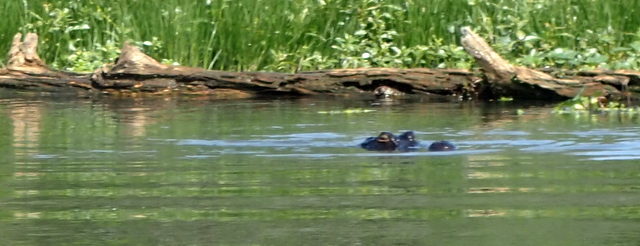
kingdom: Animalia
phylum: Chordata
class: Crocodylia
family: Alligatoridae
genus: Alligator
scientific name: Alligator mississippiensis
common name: American alligator
